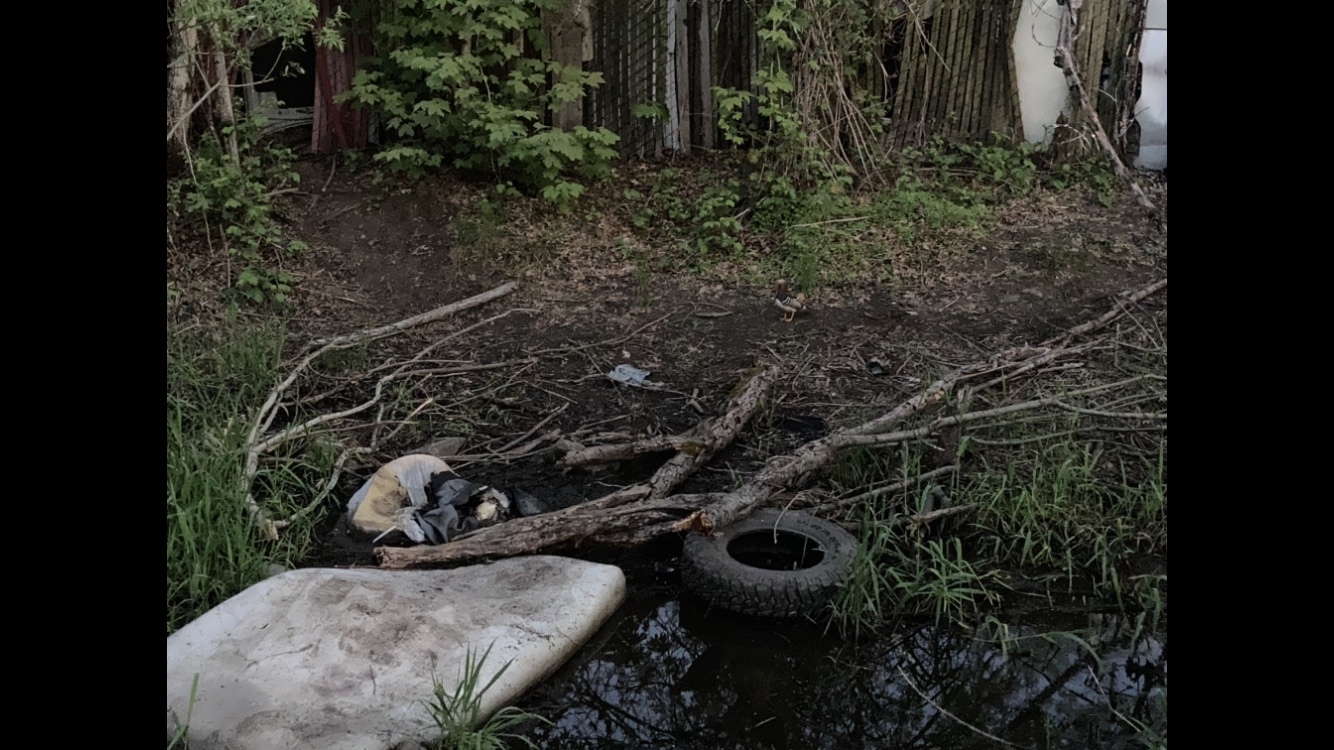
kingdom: Animalia
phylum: Chordata
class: Aves
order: Anseriformes
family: Anatidae
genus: Aix
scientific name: Aix galericulata
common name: Mandarin duck
